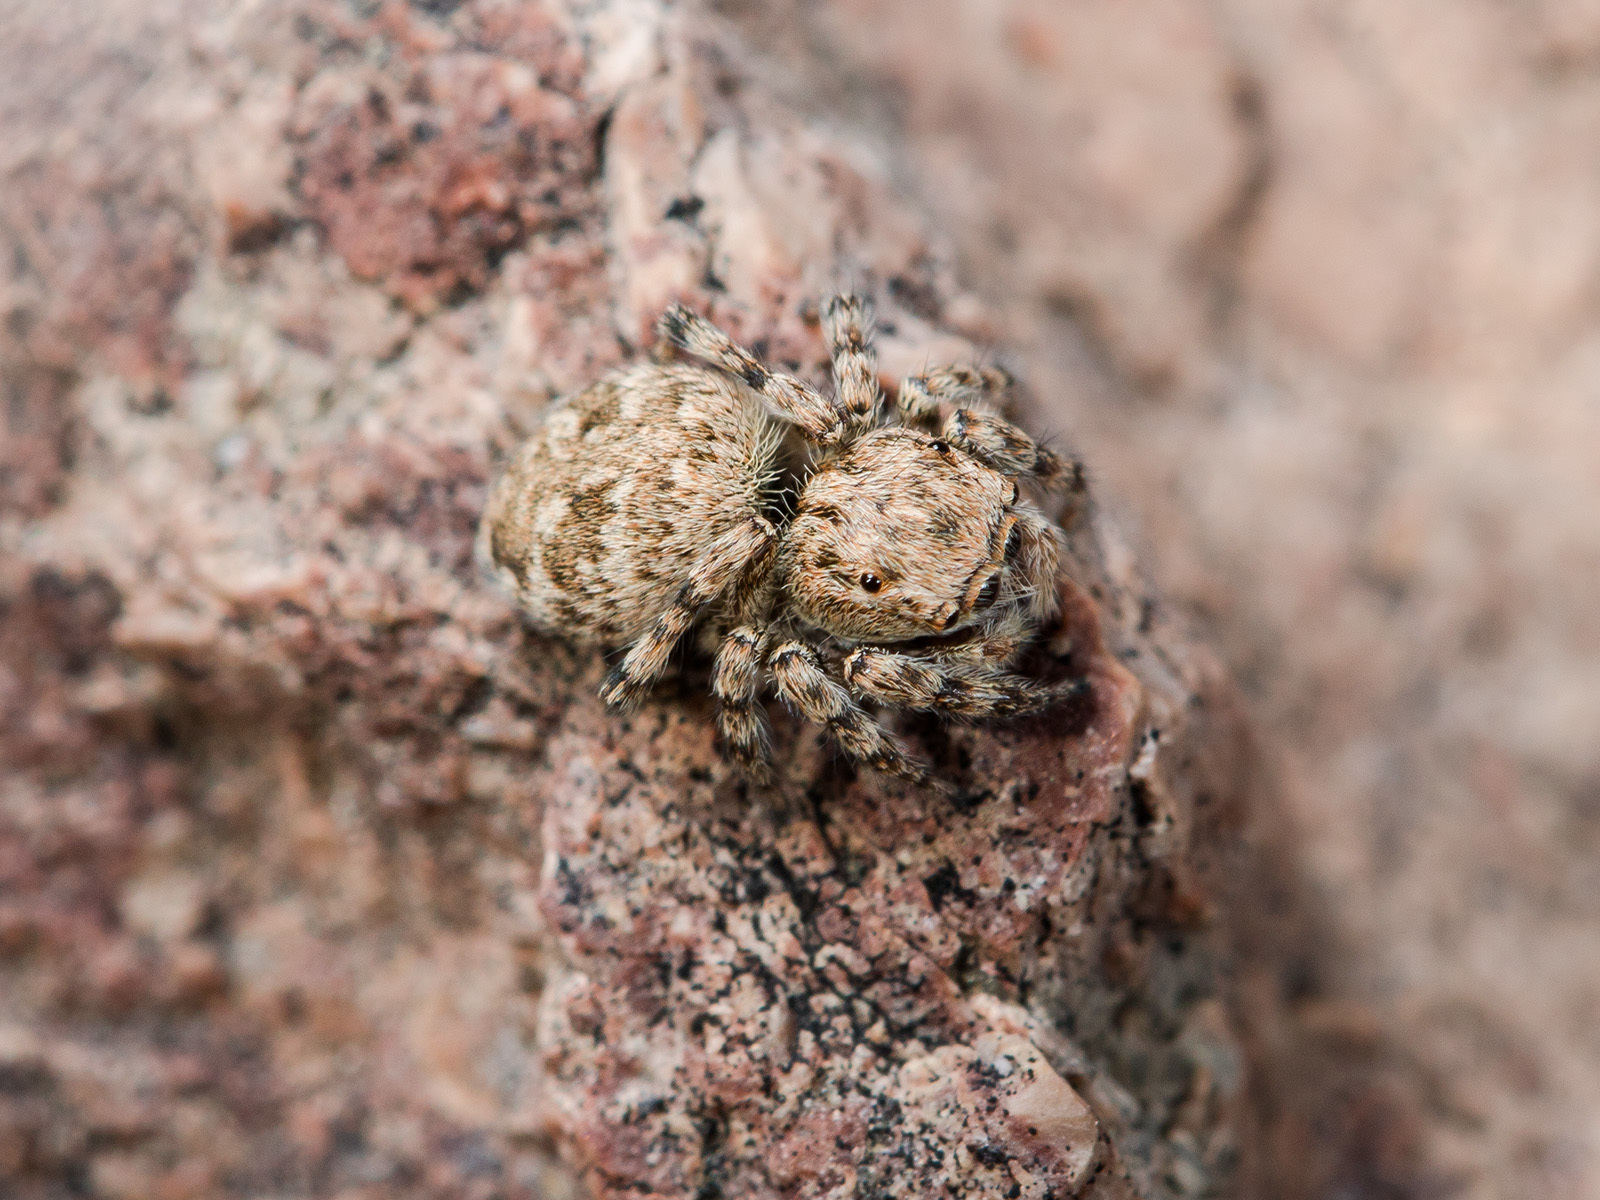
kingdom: Animalia
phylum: Arthropoda
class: Arachnida
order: Araneae
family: Salticidae
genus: Attulus
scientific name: Attulus avocator
